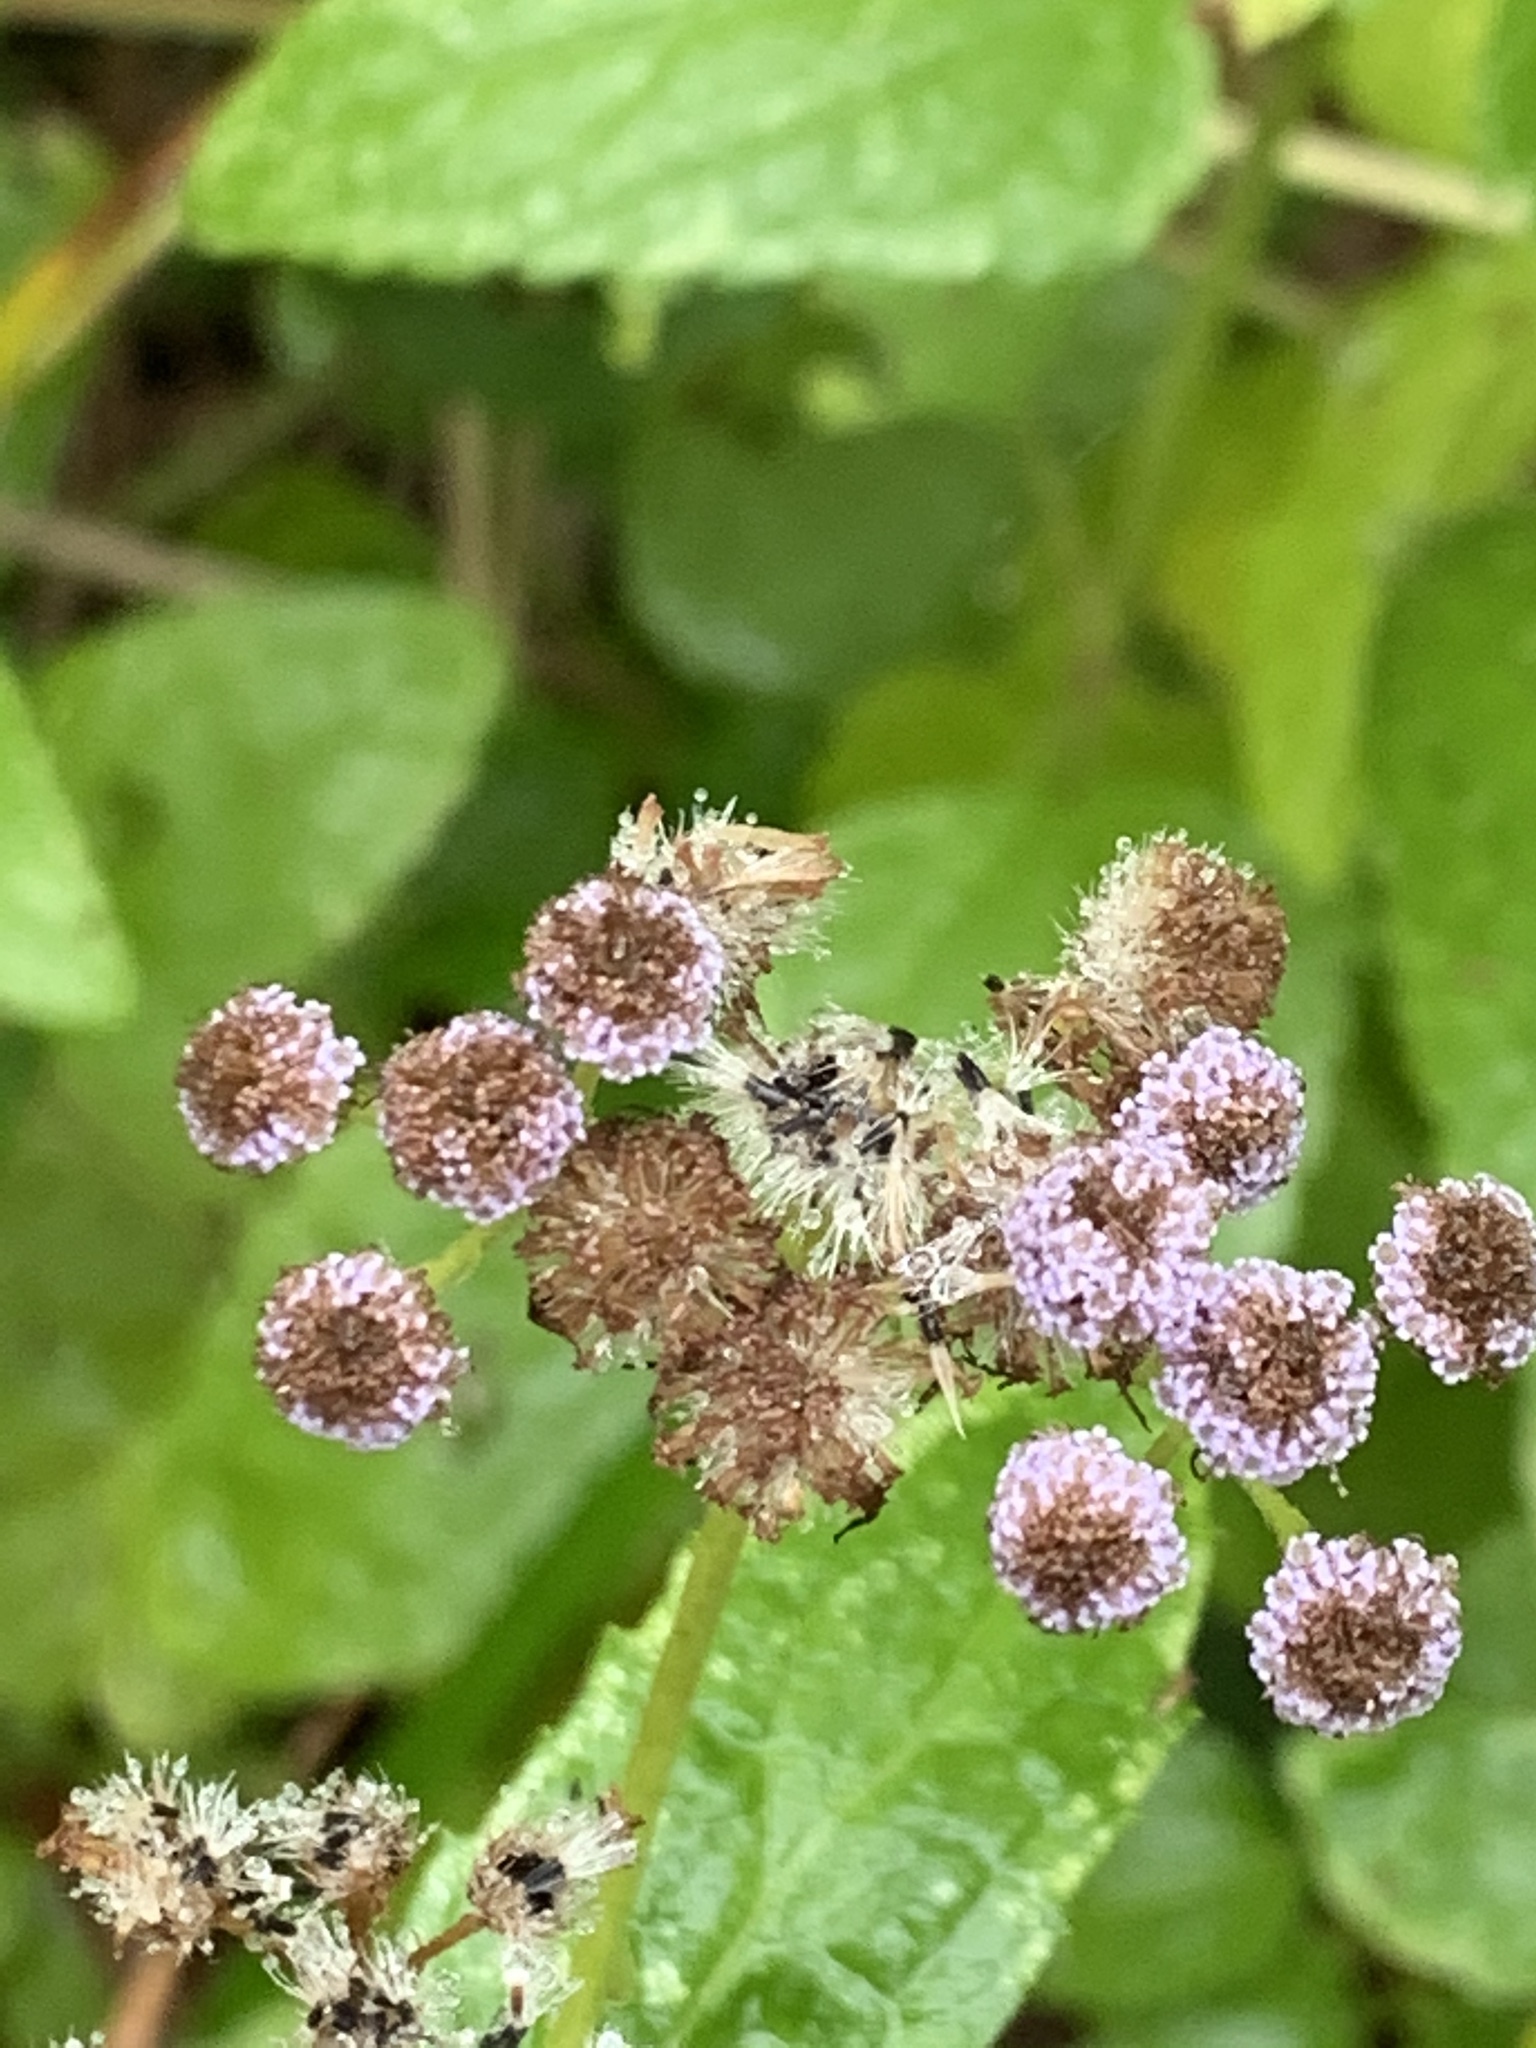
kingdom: Plantae
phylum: Tracheophyta
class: Magnoliopsida
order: Asterales
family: Asteraceae
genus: Conoclinium
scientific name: Conoclinium coelestinum
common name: Blue mistflower
